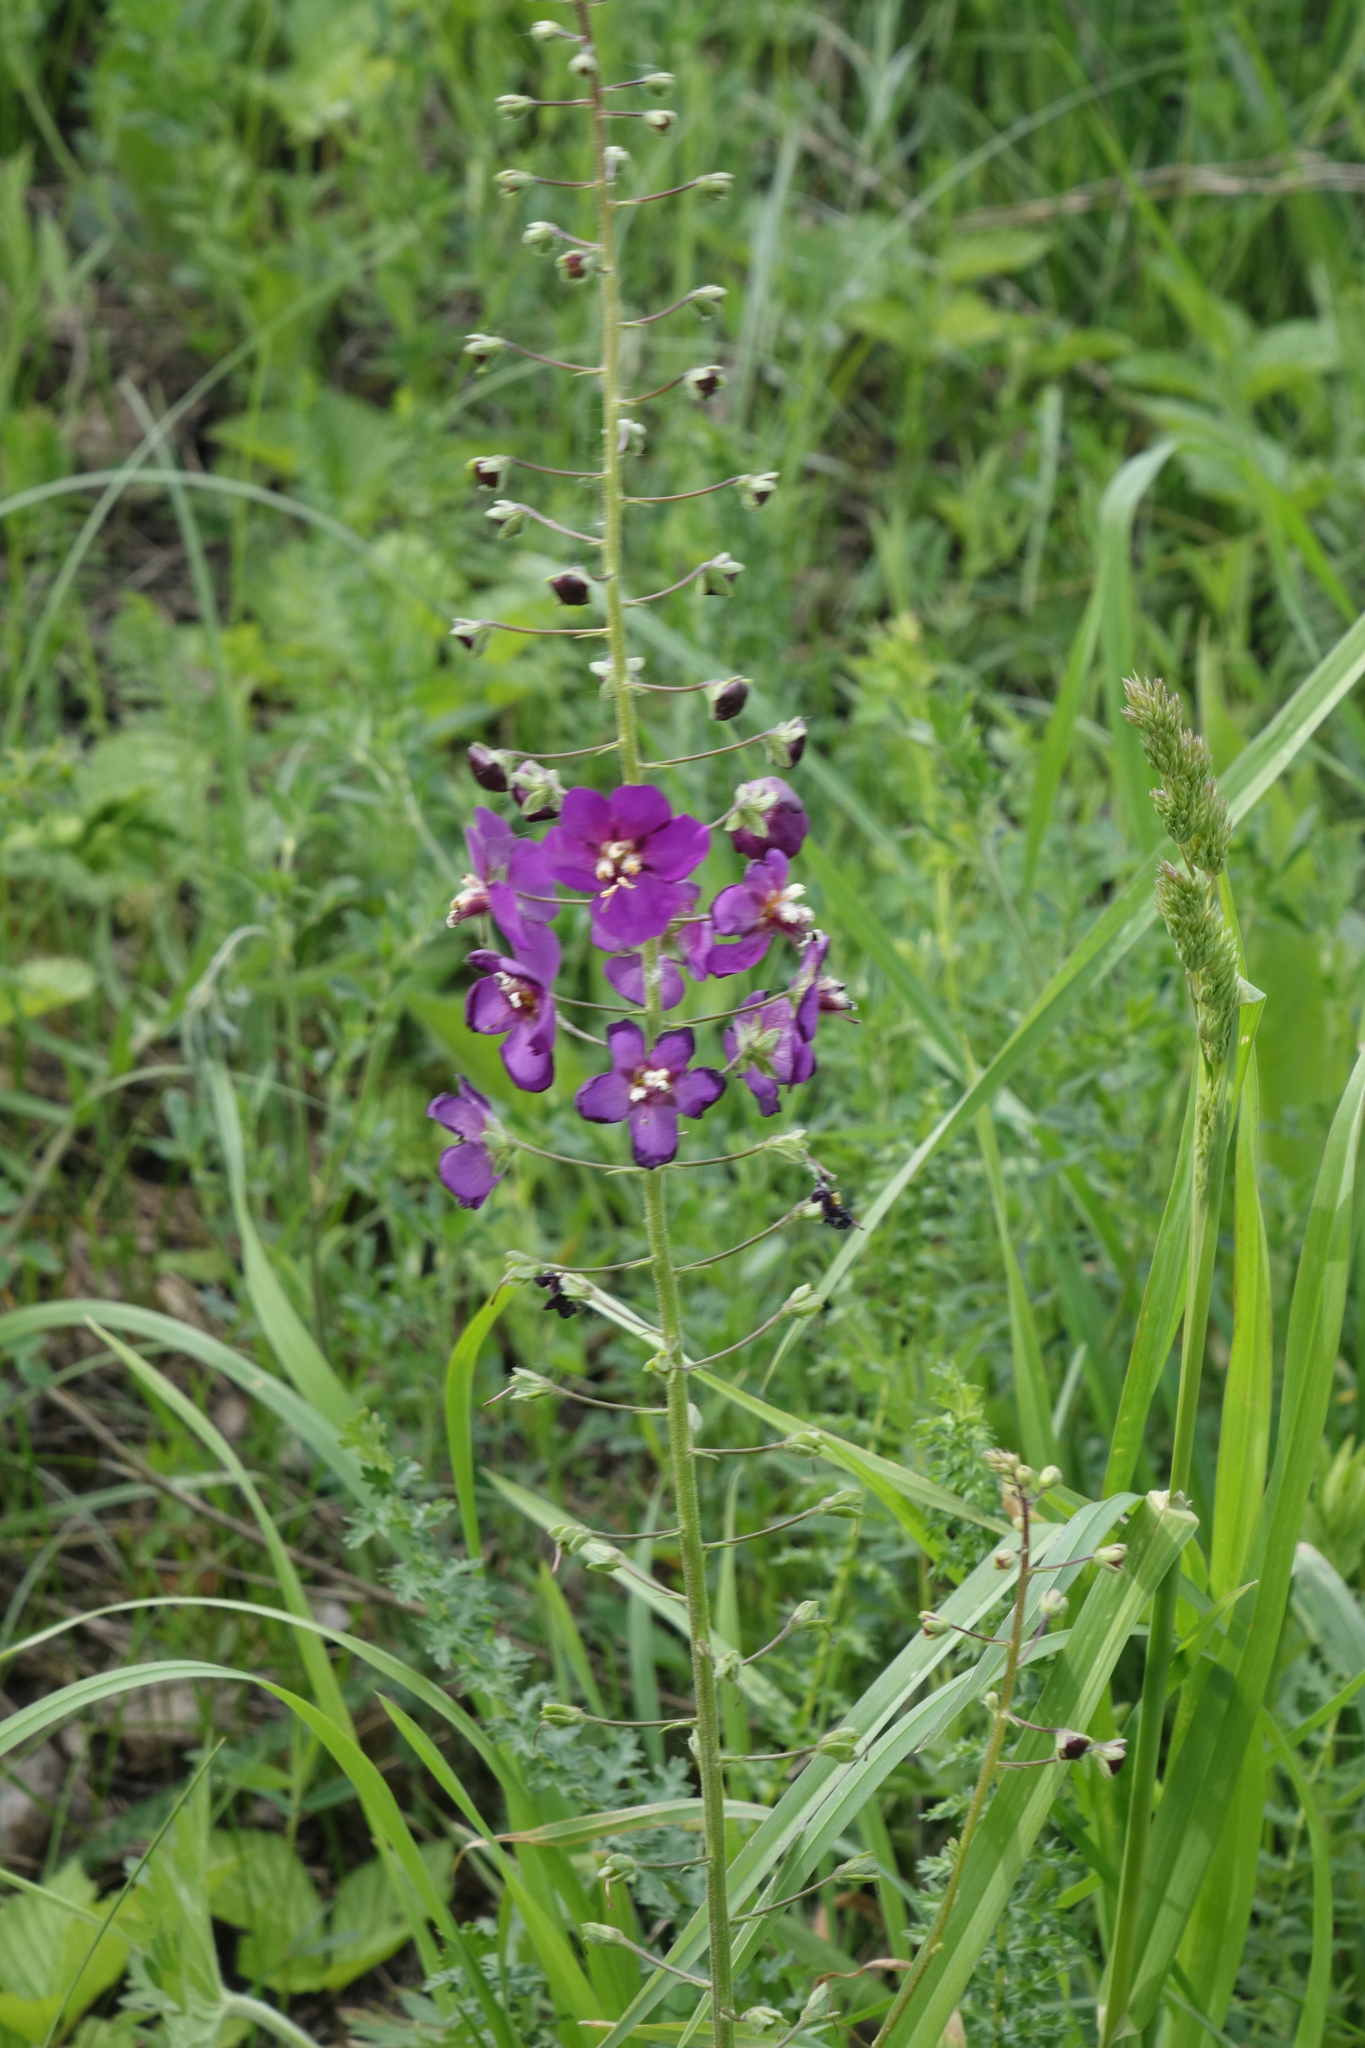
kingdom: Plantae
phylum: Tracheophyta
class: Magnoliopsida
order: Lamiales
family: Scrophulariaceae
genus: Verbascum
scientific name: Verbascum phoeniceum
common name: Purple mullein
